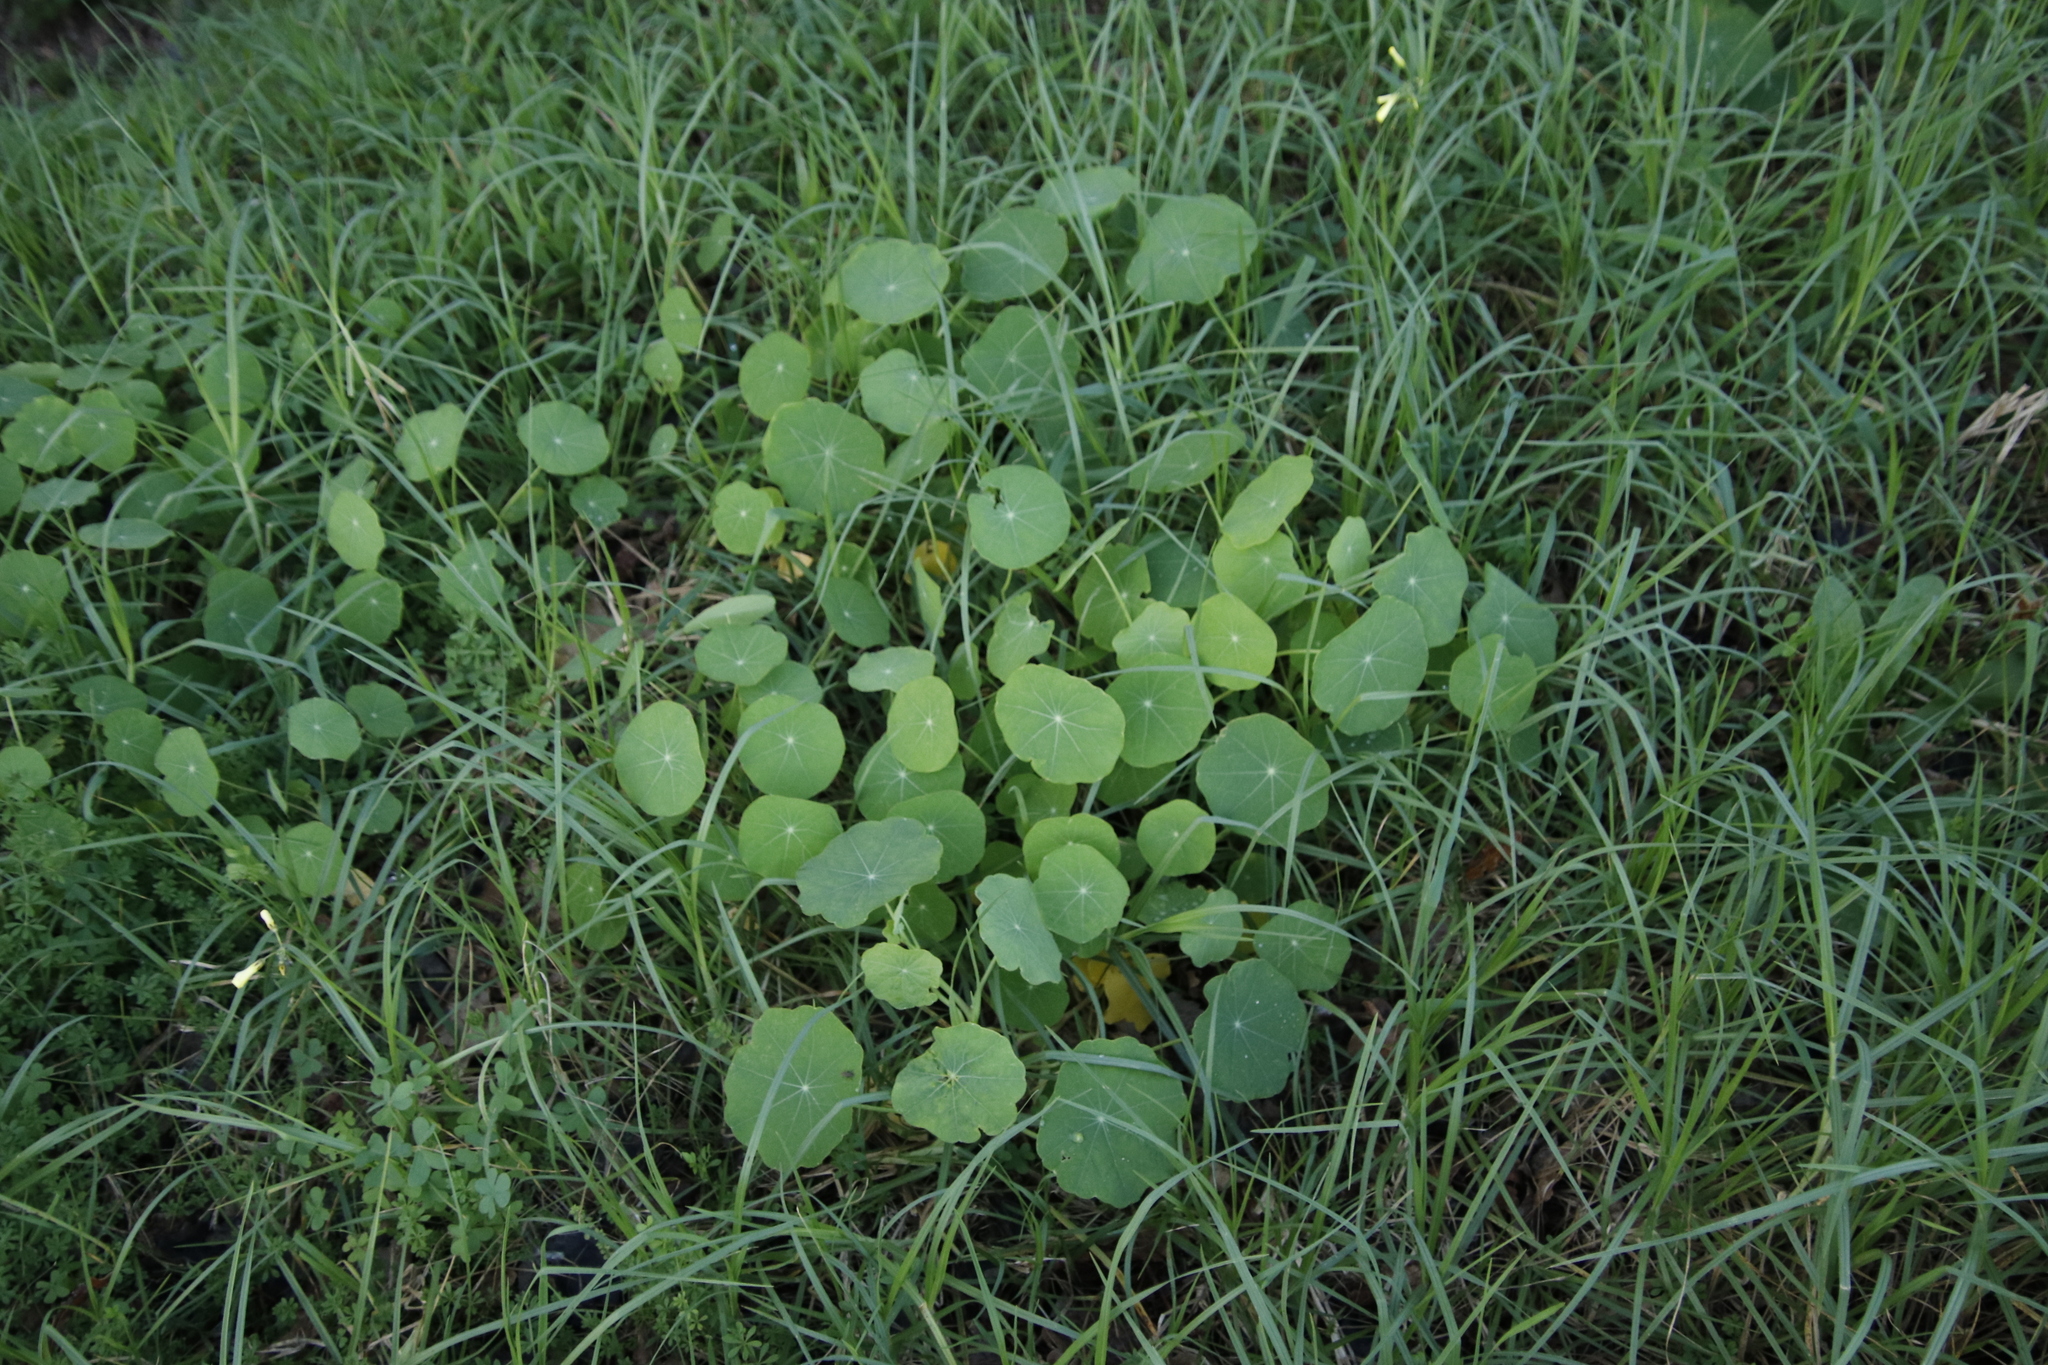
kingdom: Plantae
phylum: Tracheophyta
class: Magnoliopsida
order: Brassicales
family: Tropaeolaceae
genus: Tropaeolum
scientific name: Tropaeolum majus
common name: Nasturtium
